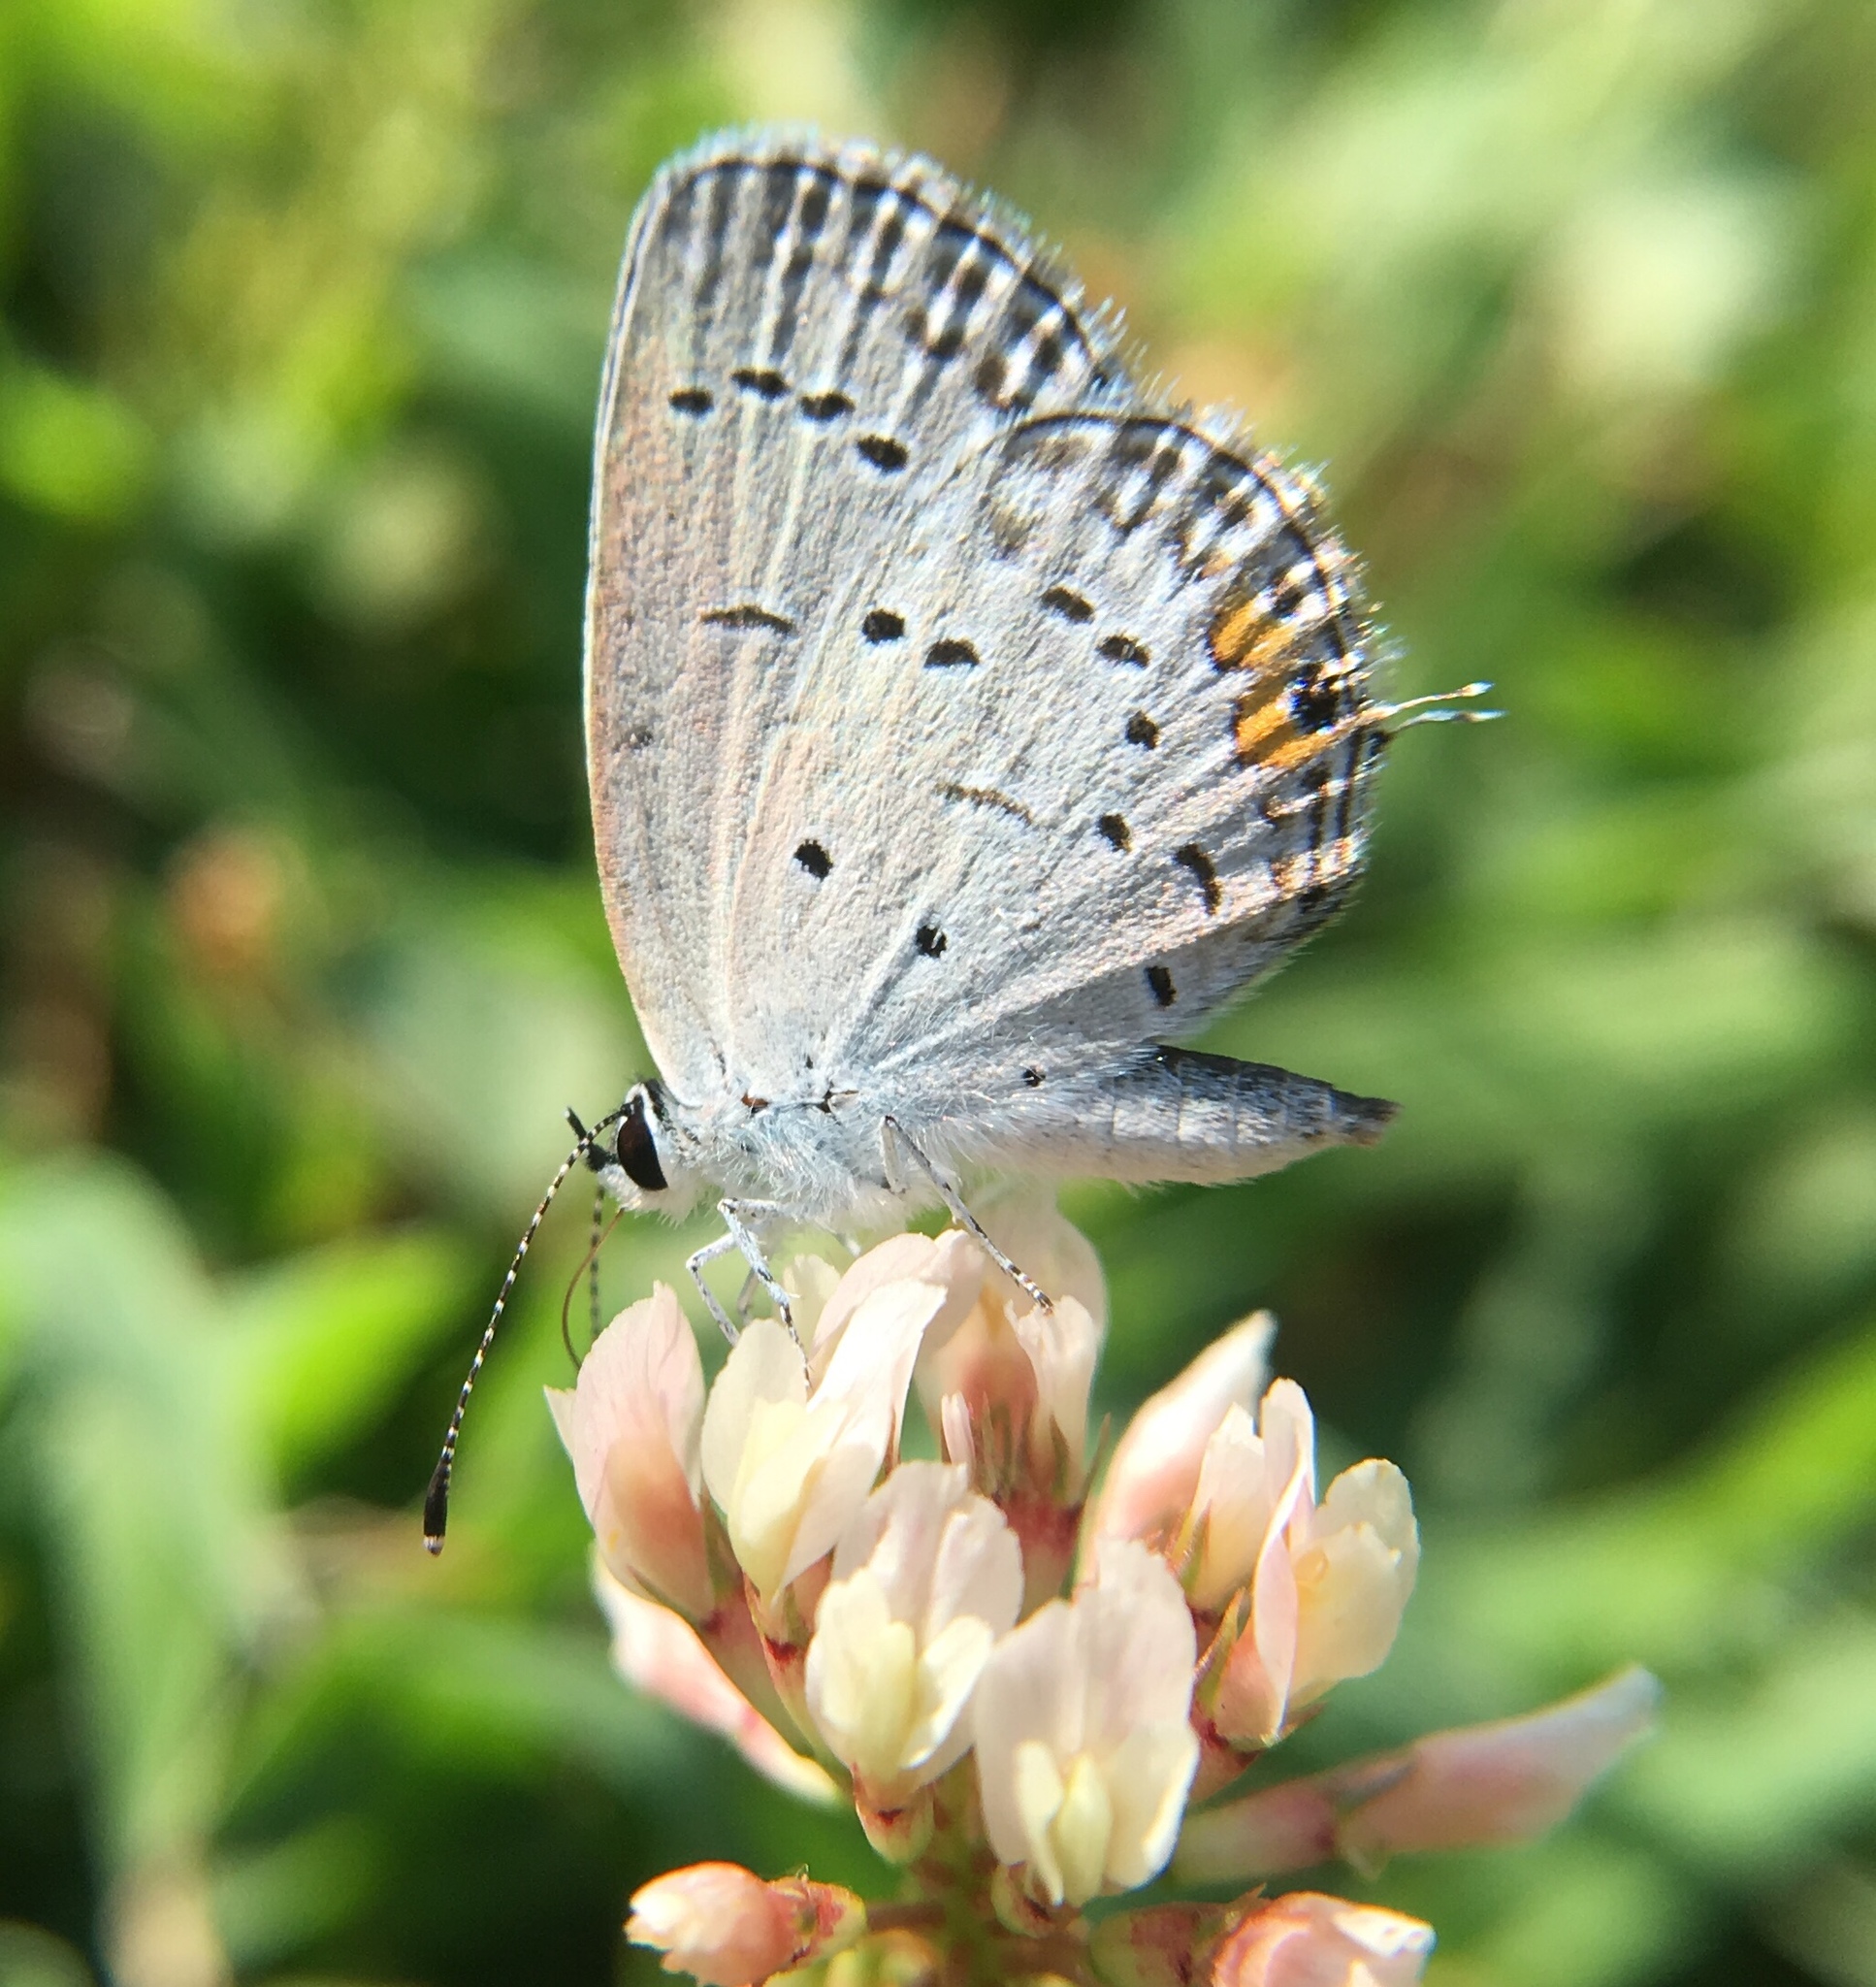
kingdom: Animalia
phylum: Arthropoda
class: Insecta
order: Lepidoptera
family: Lycaenidae
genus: Elkalyce
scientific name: Elkalyce comyntas
